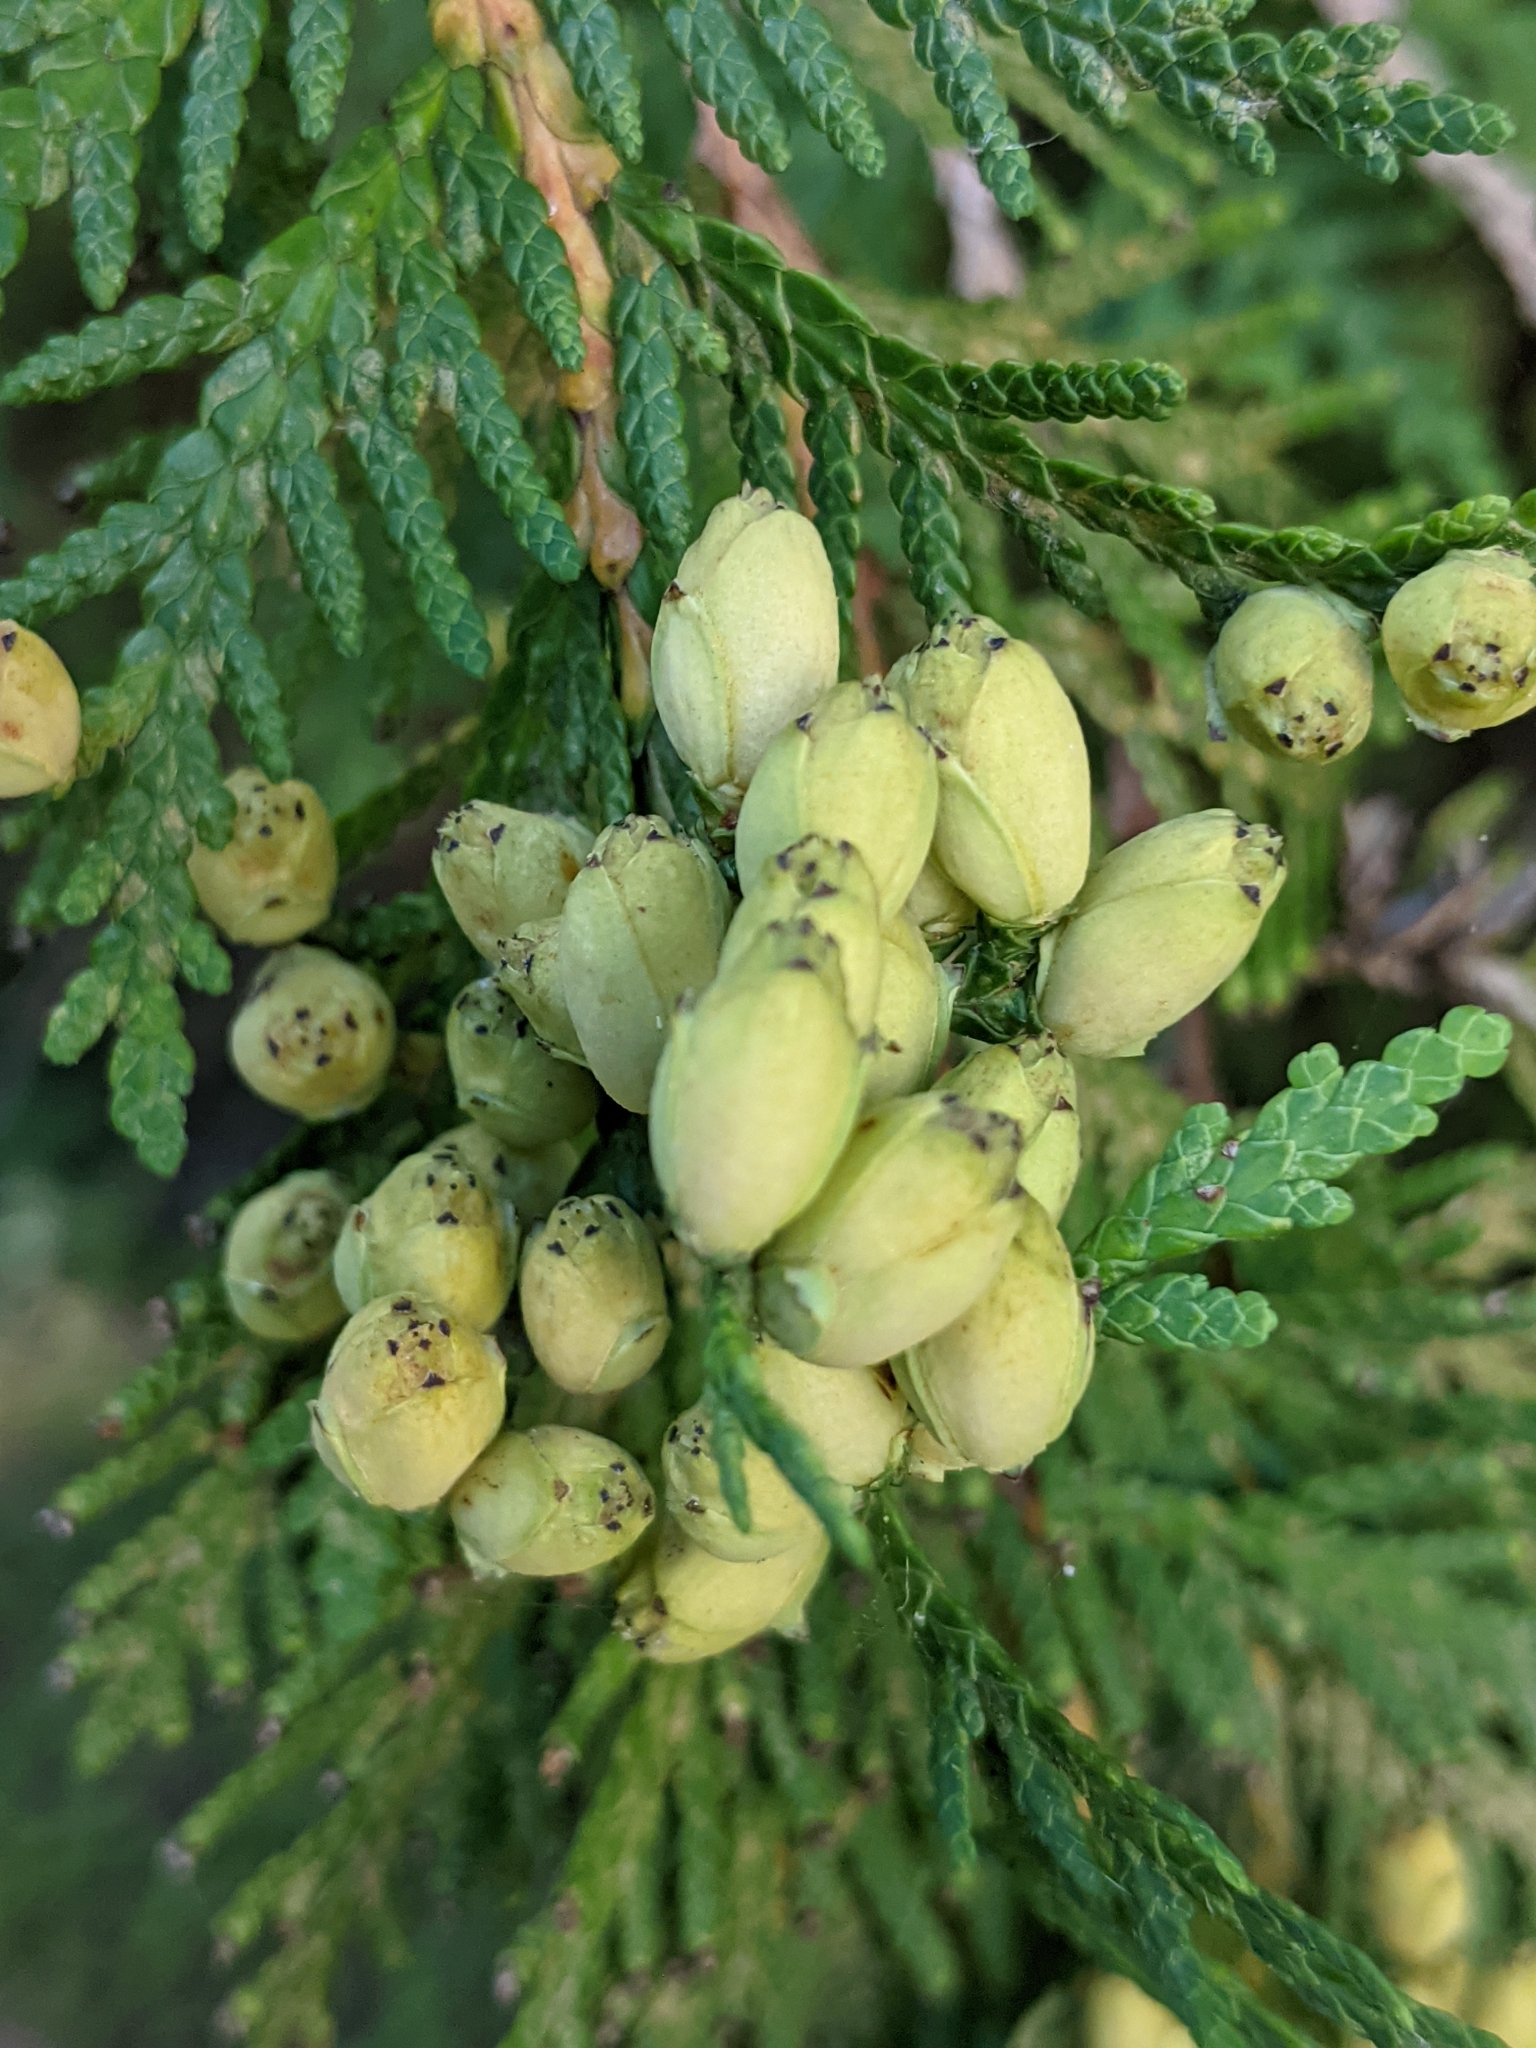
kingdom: Plantae
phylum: Tracheophyta
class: Pinopsida
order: Pinales
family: Cupressaceae
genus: Thuja
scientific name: Thuja occidentalis
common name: Northern white-cedar
